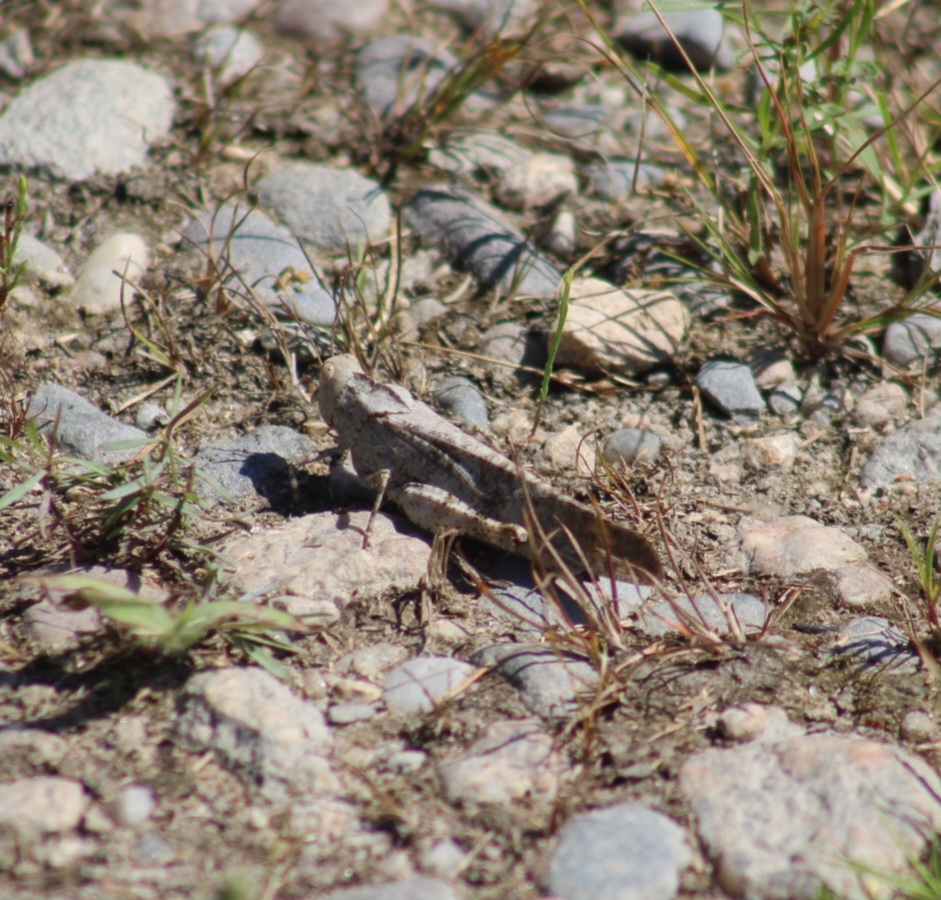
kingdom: Animalia
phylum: Arthropoda
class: Insecta
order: Orthoptera
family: Acrididae
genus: Dissosteira
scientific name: Dissosteira carolina
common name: Carolina grasshopper
